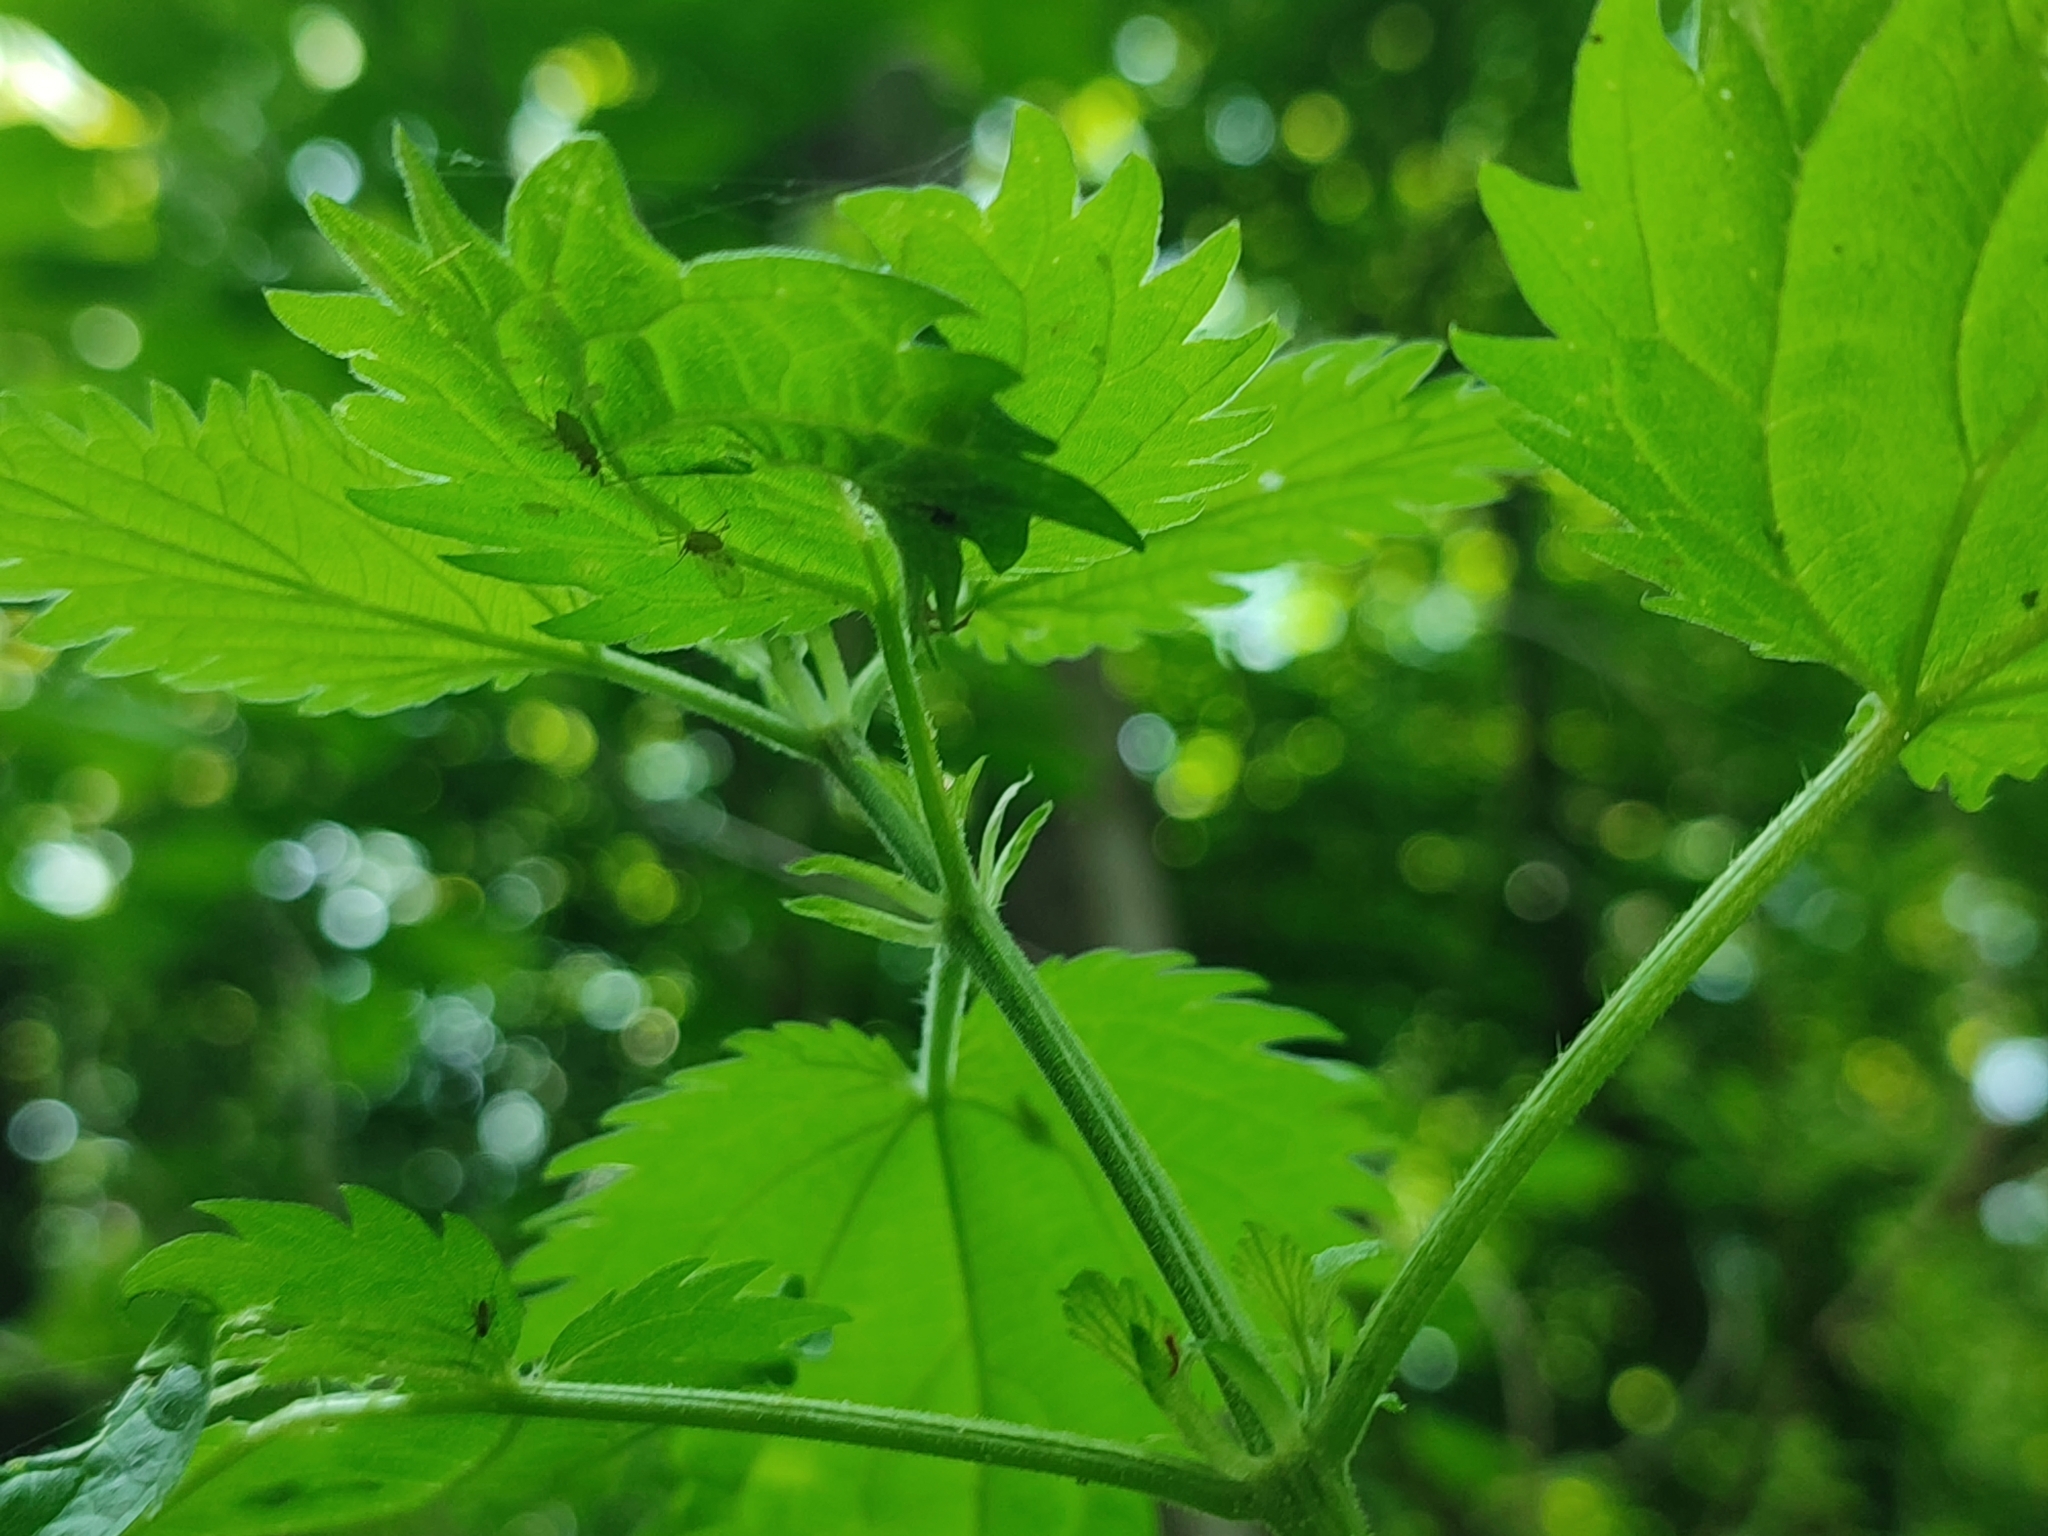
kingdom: Plantae
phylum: Tracheophyta
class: Magnoliopsida
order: Rosales
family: Urticaceae
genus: Urtica
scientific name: Urtica dioica
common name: Common nettle
